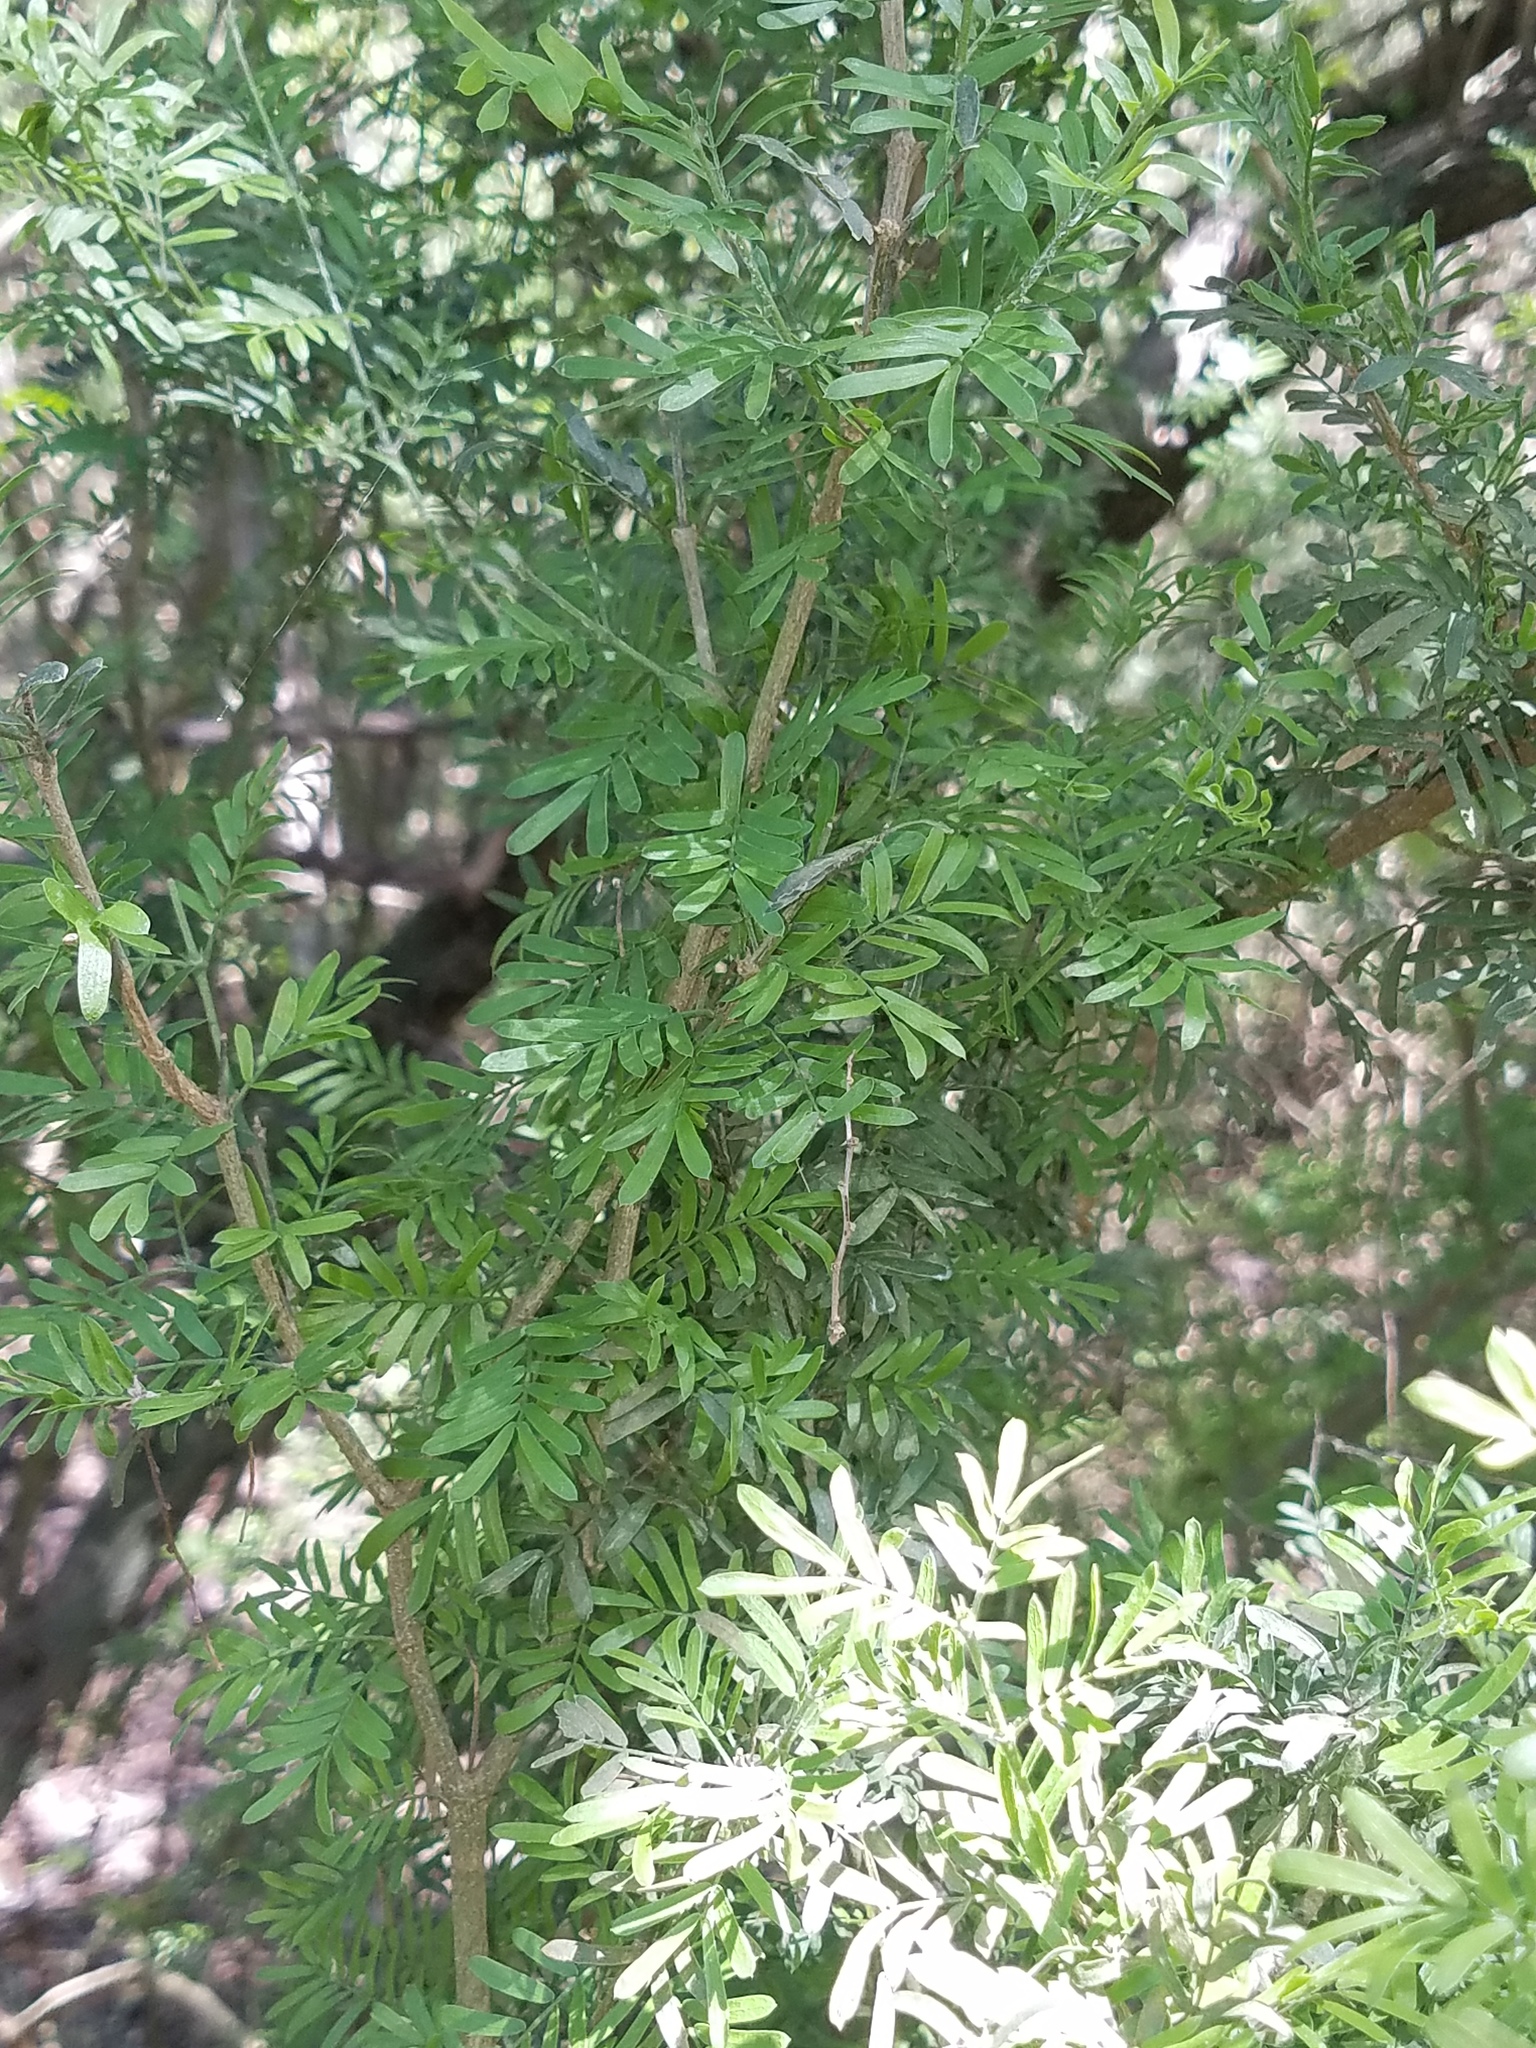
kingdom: Plantae
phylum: Tracheophyta
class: Magnoliopsida
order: Zygophyllales
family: Zygophyllaceae
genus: Porlieria
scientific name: Porlieria angustifolia
